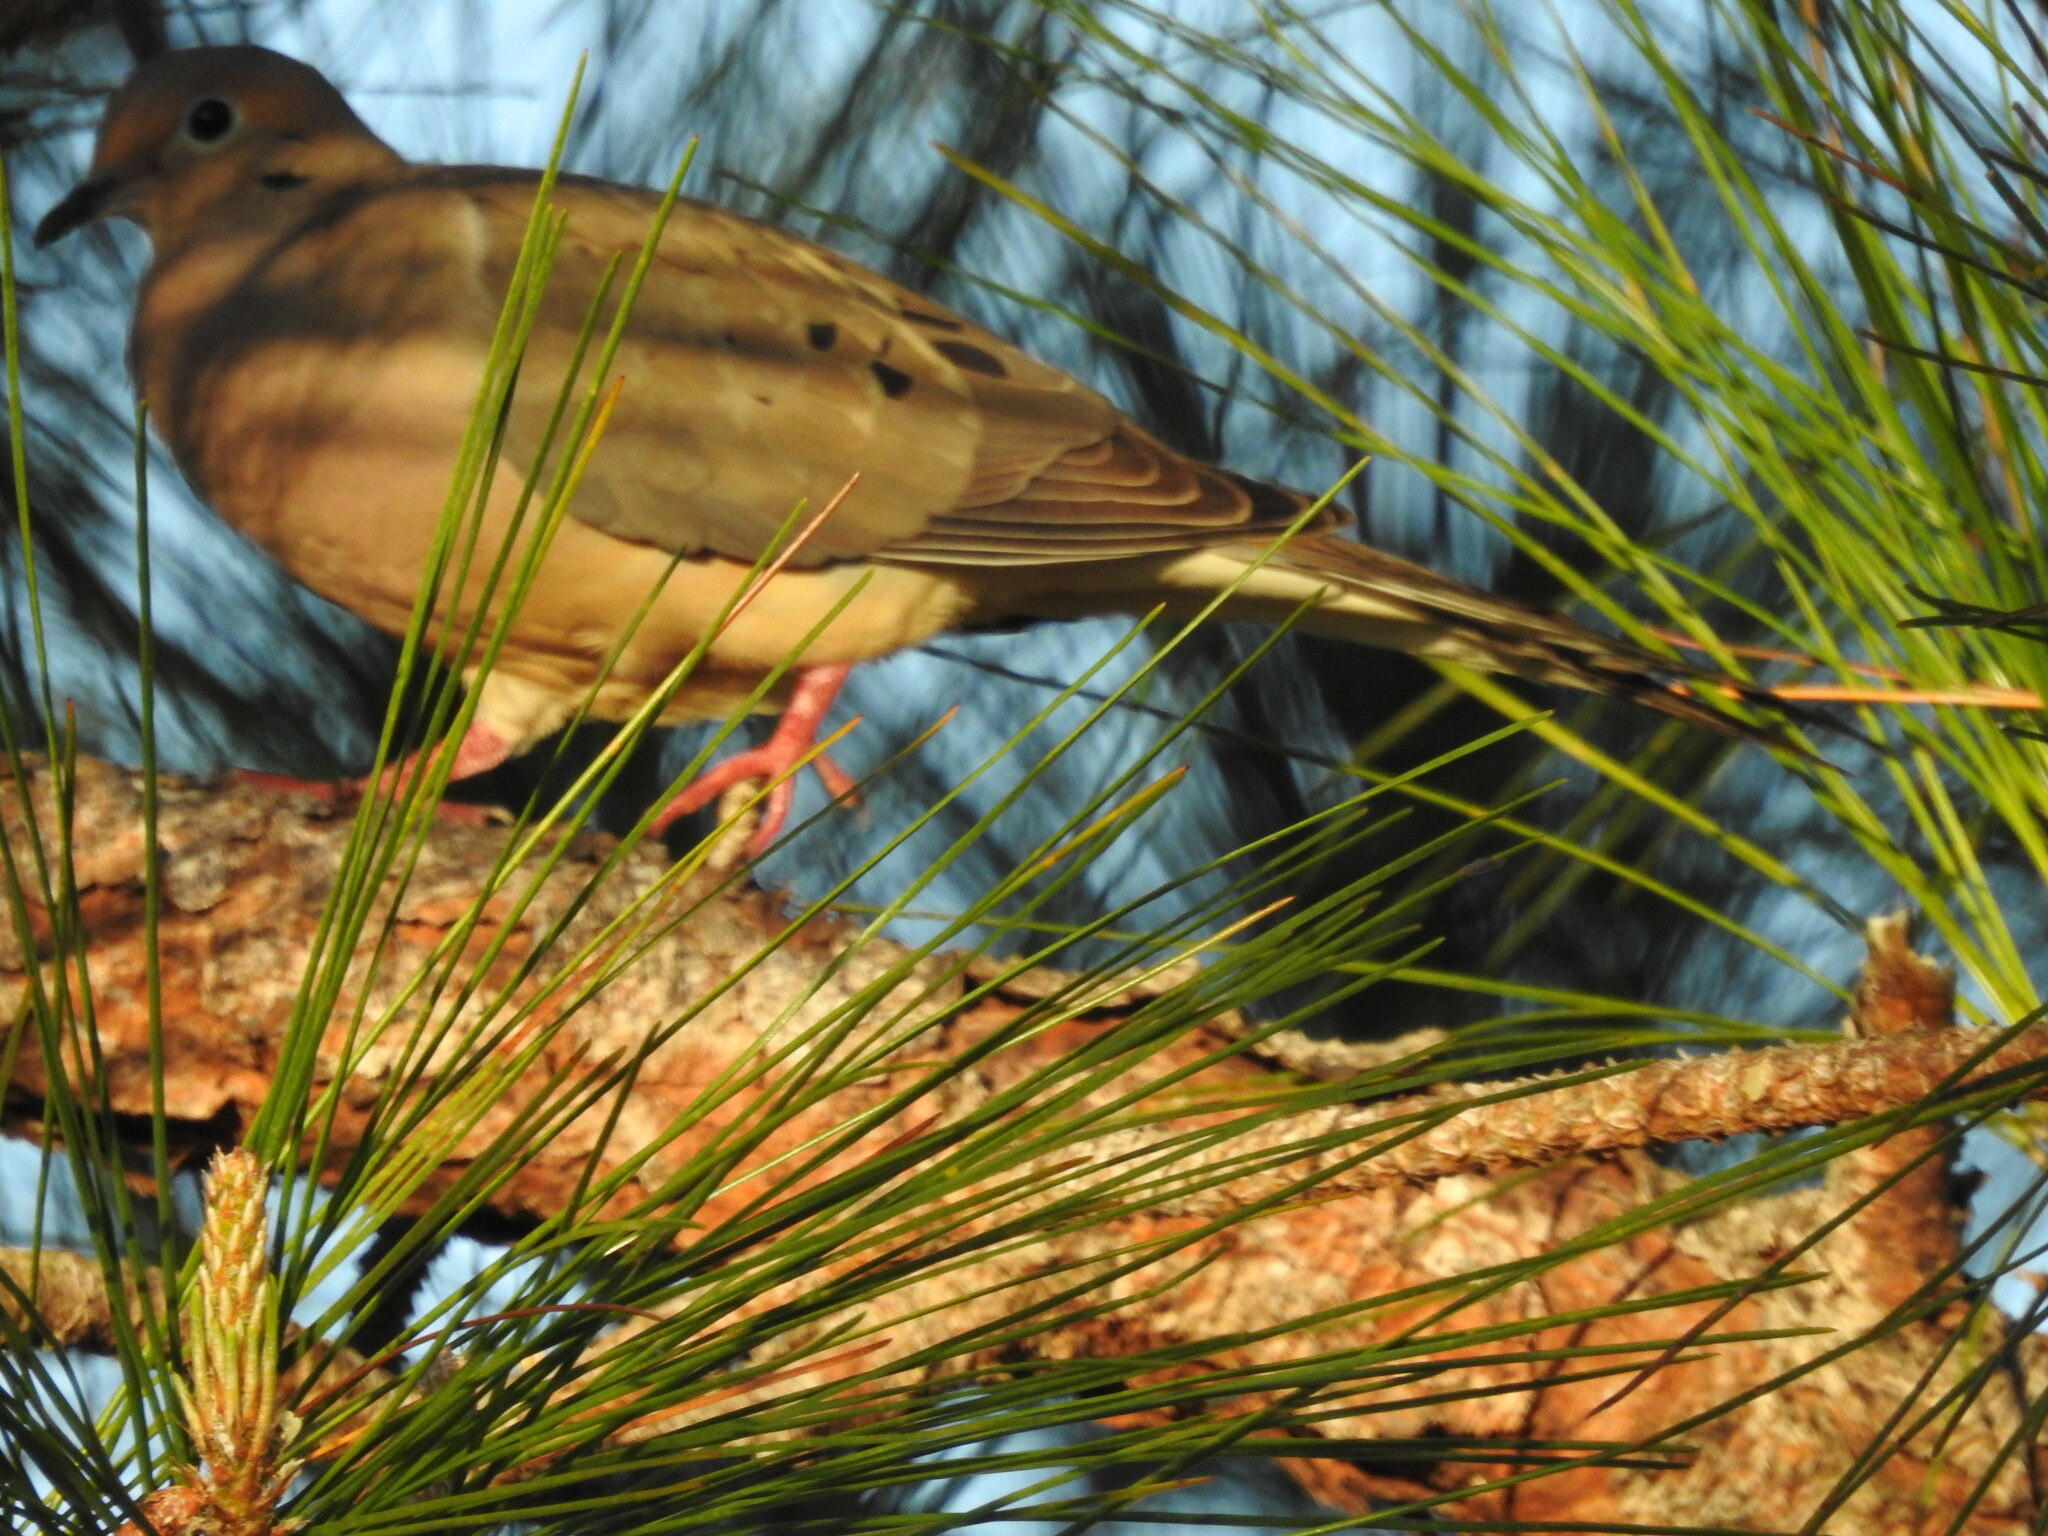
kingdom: Animalia
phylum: Chordata
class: Aves
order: Columbiformes
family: Columbidae
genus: Zenaida
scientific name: Zenaida macroura
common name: Mourning dove
